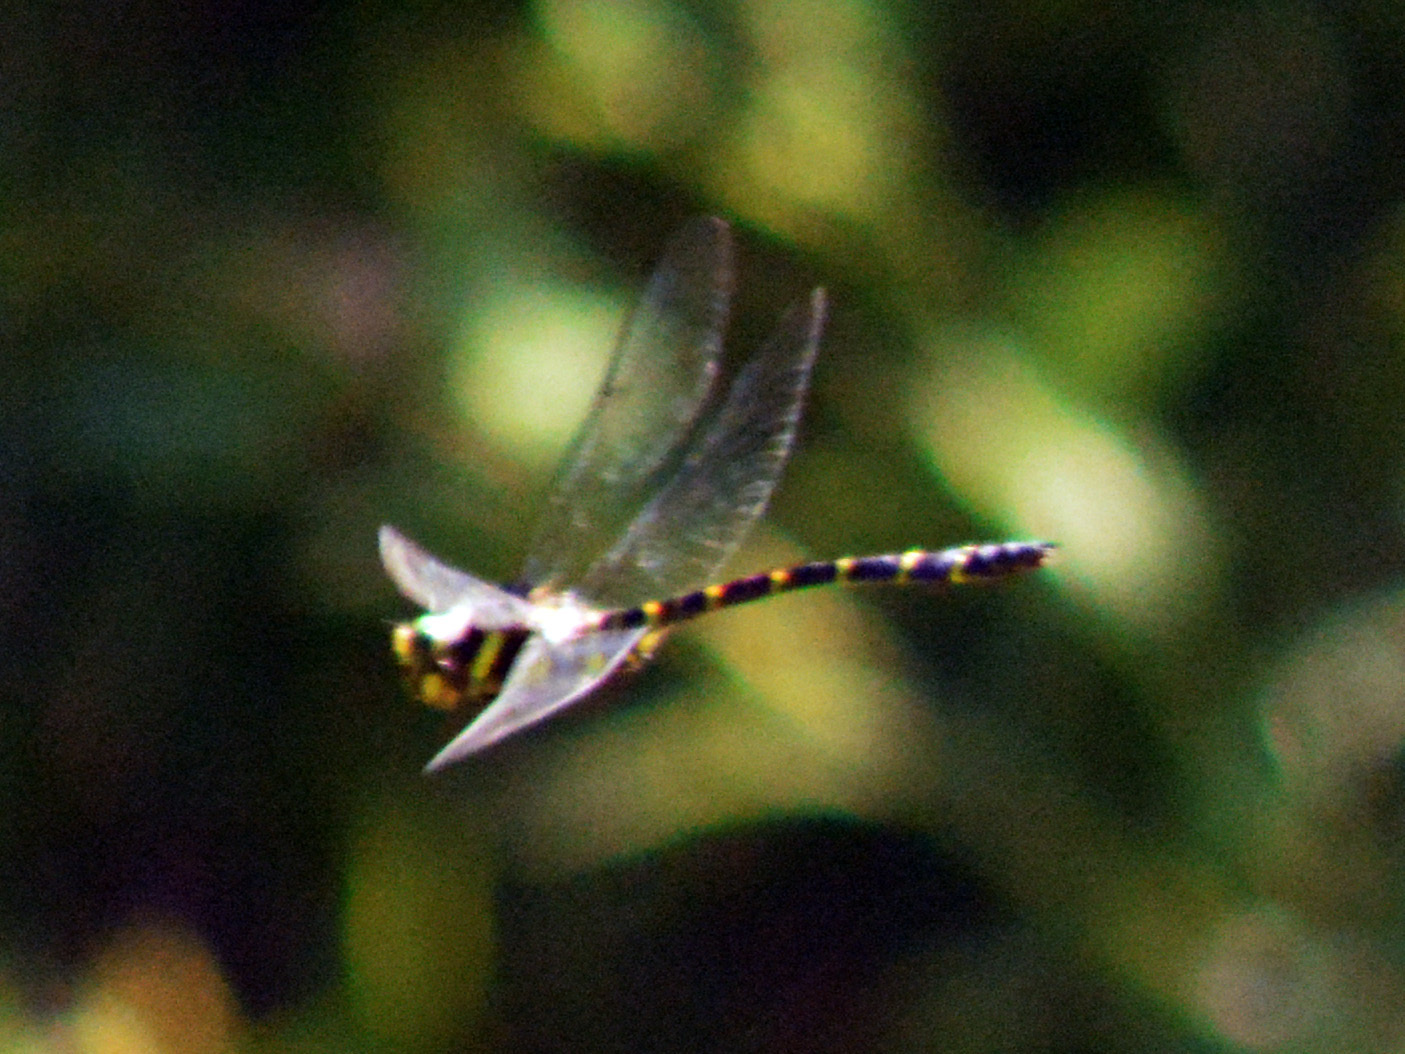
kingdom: Animalia
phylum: Arthropoda
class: Insecta
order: Odonata
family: Cordulegastridae
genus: Cordulegaster
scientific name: Cordulegaster bidentata
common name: Sombre goldenring
